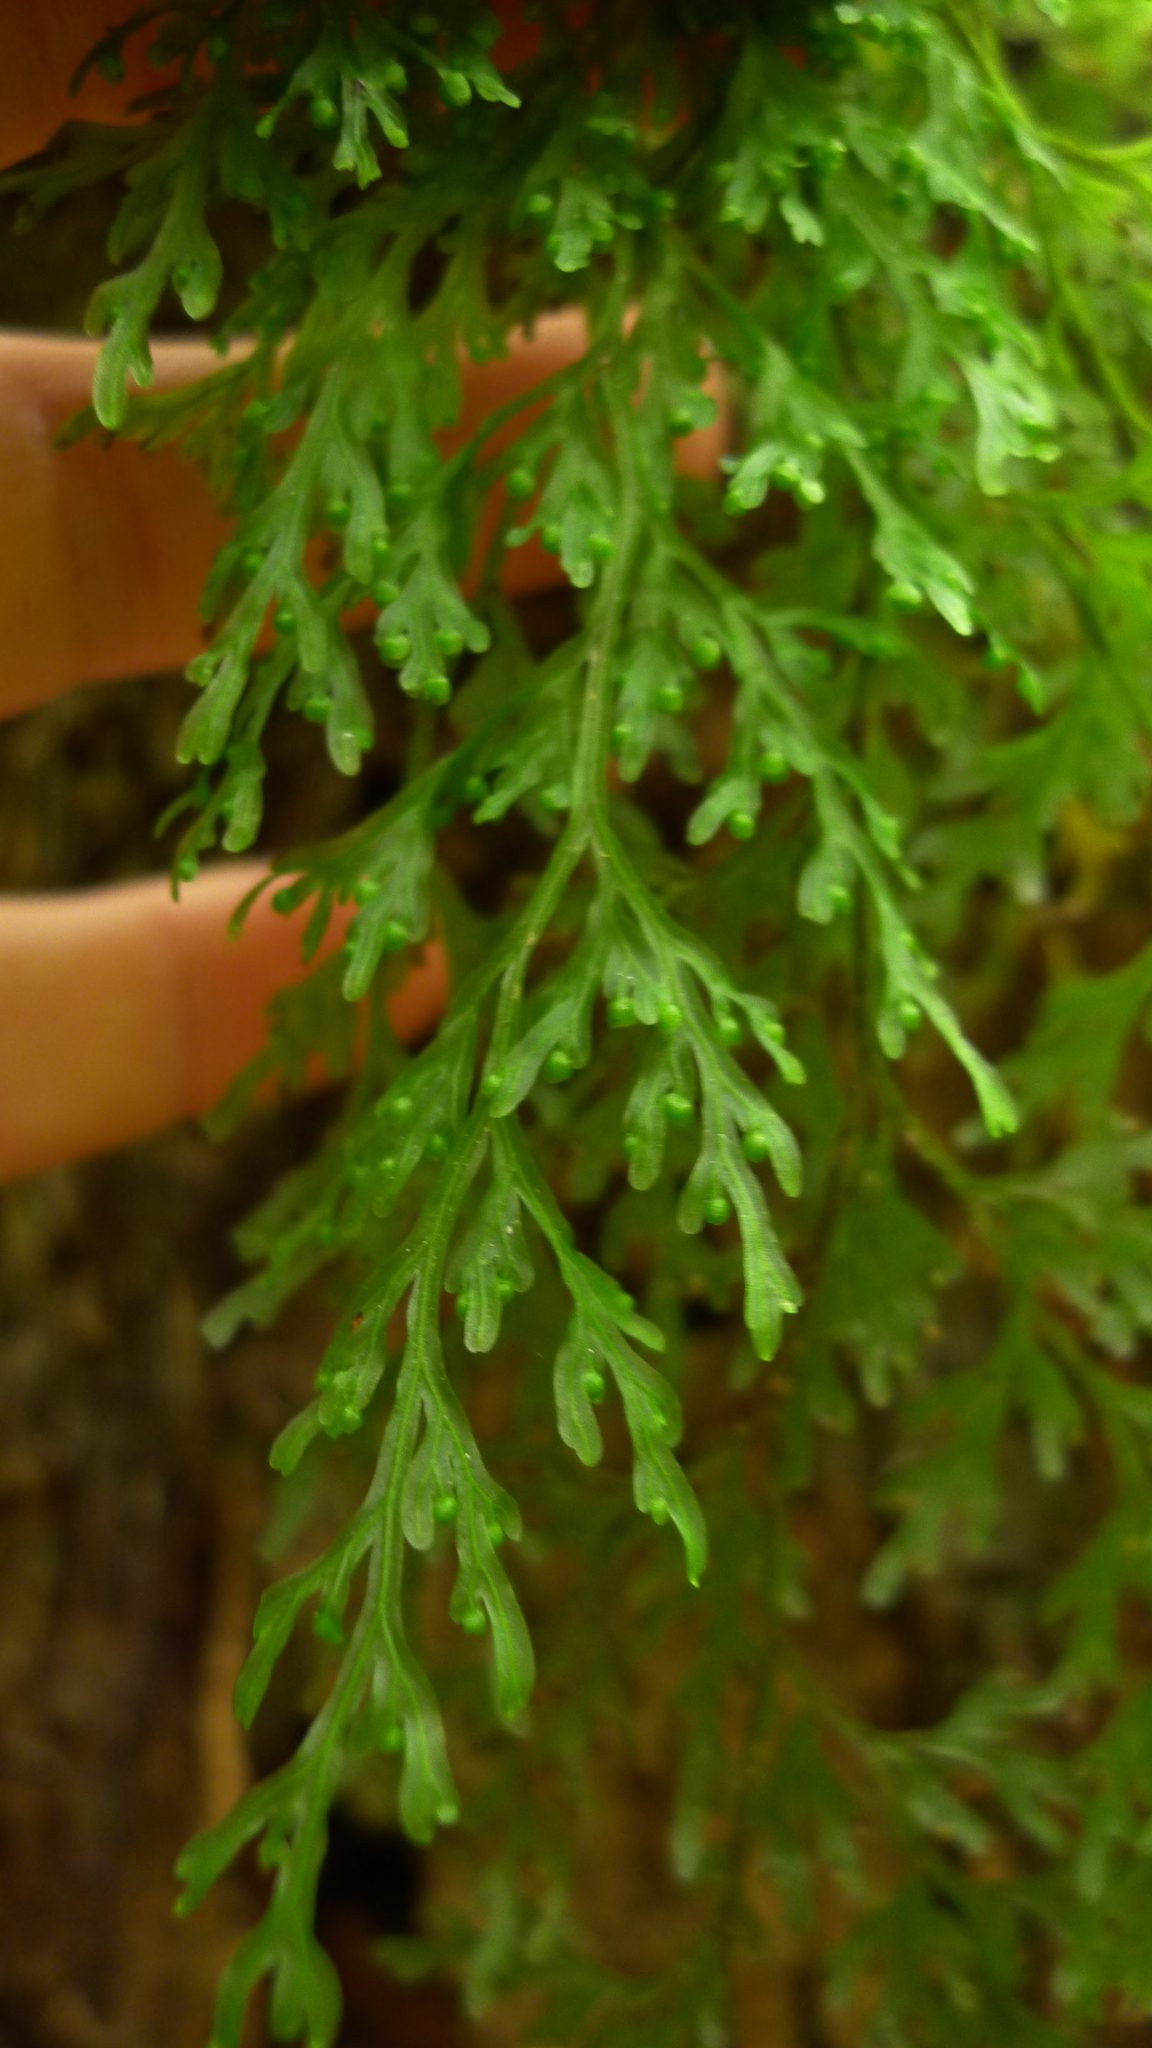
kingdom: Plantae
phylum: Tracheophyta
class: Polypodiopsida
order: Hymenophyllales
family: Hymenophyllaceae
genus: Hymenophyllum
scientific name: Hymenophyllum pulcherrimum
